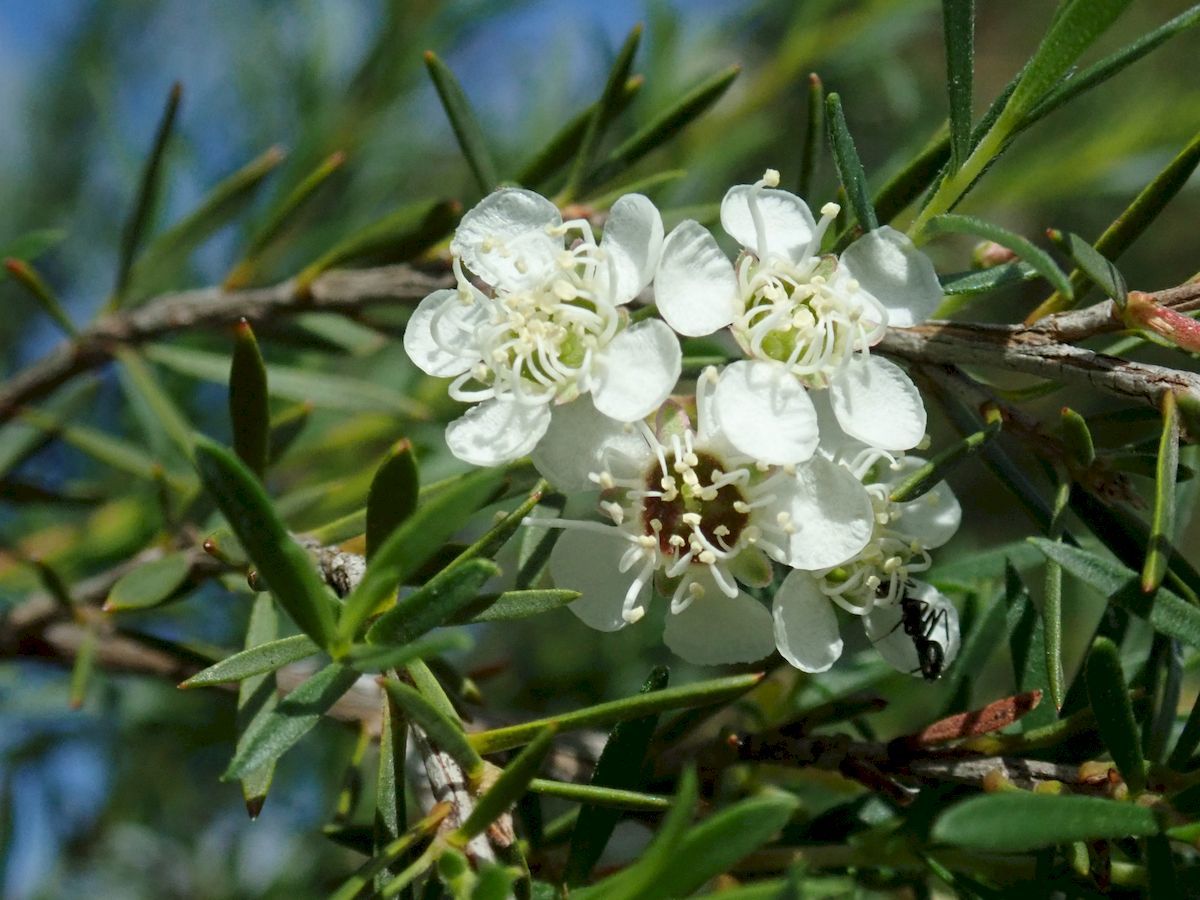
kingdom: Plantae
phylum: Tracheophyta
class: Magnoliopsida
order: Myrtales
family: Myrtaceae
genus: Kunzea
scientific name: Kunzea ericoides
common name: Burgan
